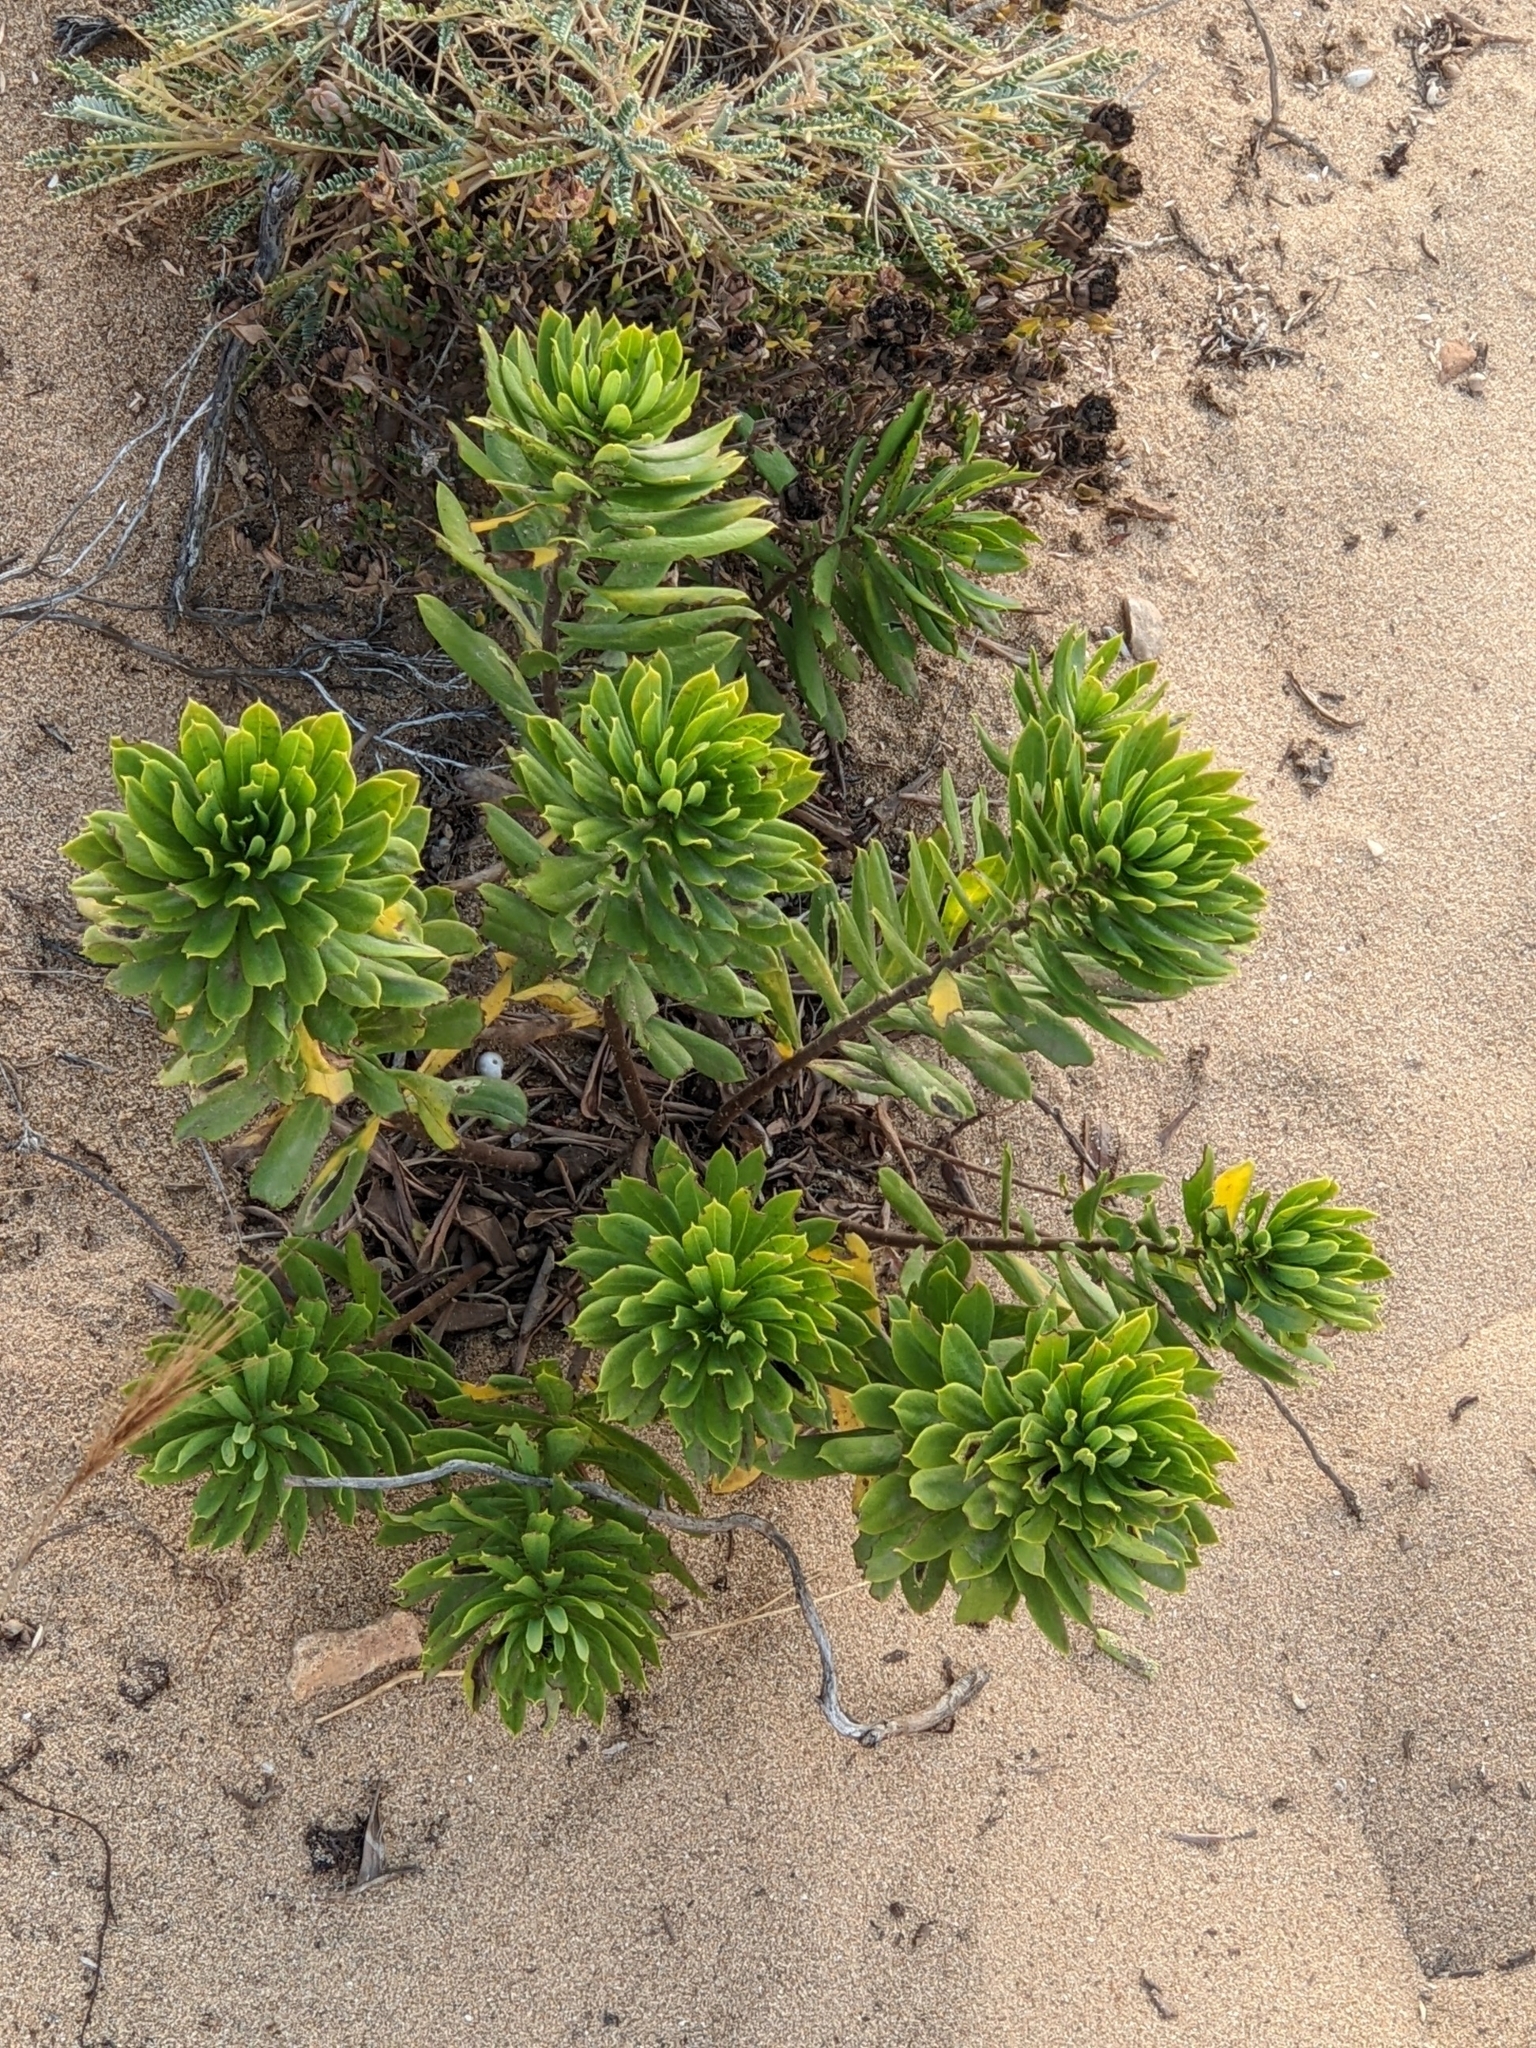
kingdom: Plantae
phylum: Tracheophyta
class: Magnoliopsida
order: Malpighiales
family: Euphorbiaceae
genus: Euphorbia
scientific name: Euphorbia paralias
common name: Sea spurge
